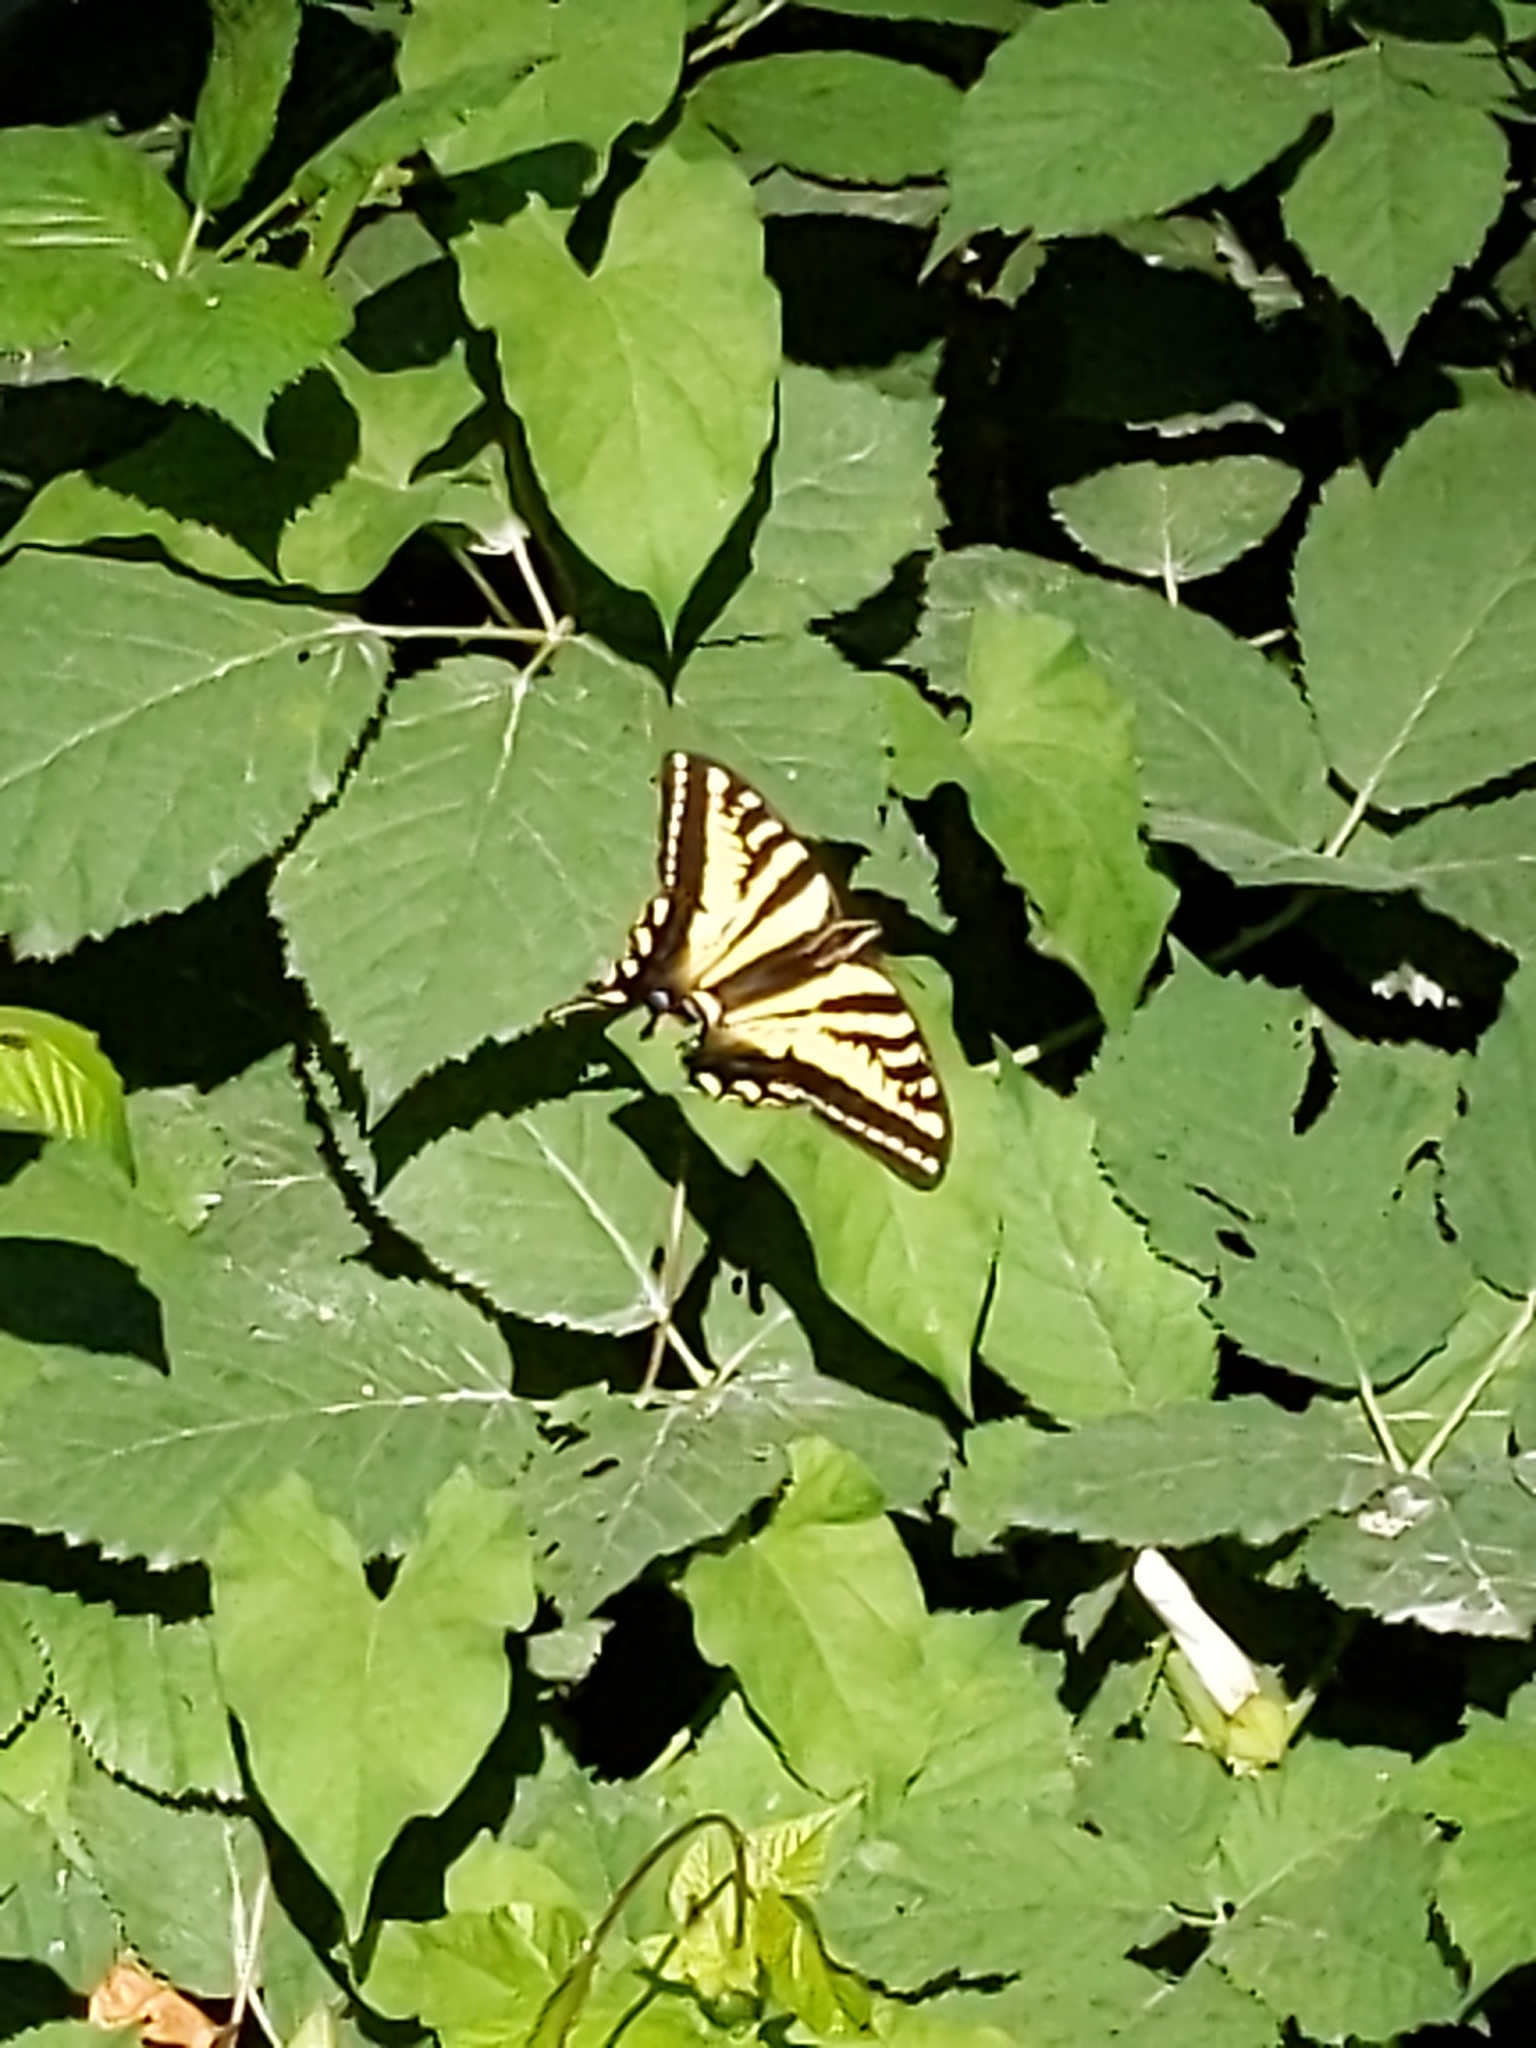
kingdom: Animalia
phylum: Arthropoda
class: Insecta
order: Lepidoptera
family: Papilionidae
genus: Papilio
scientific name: Papilio rutulus
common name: Western tiger swallowtail
